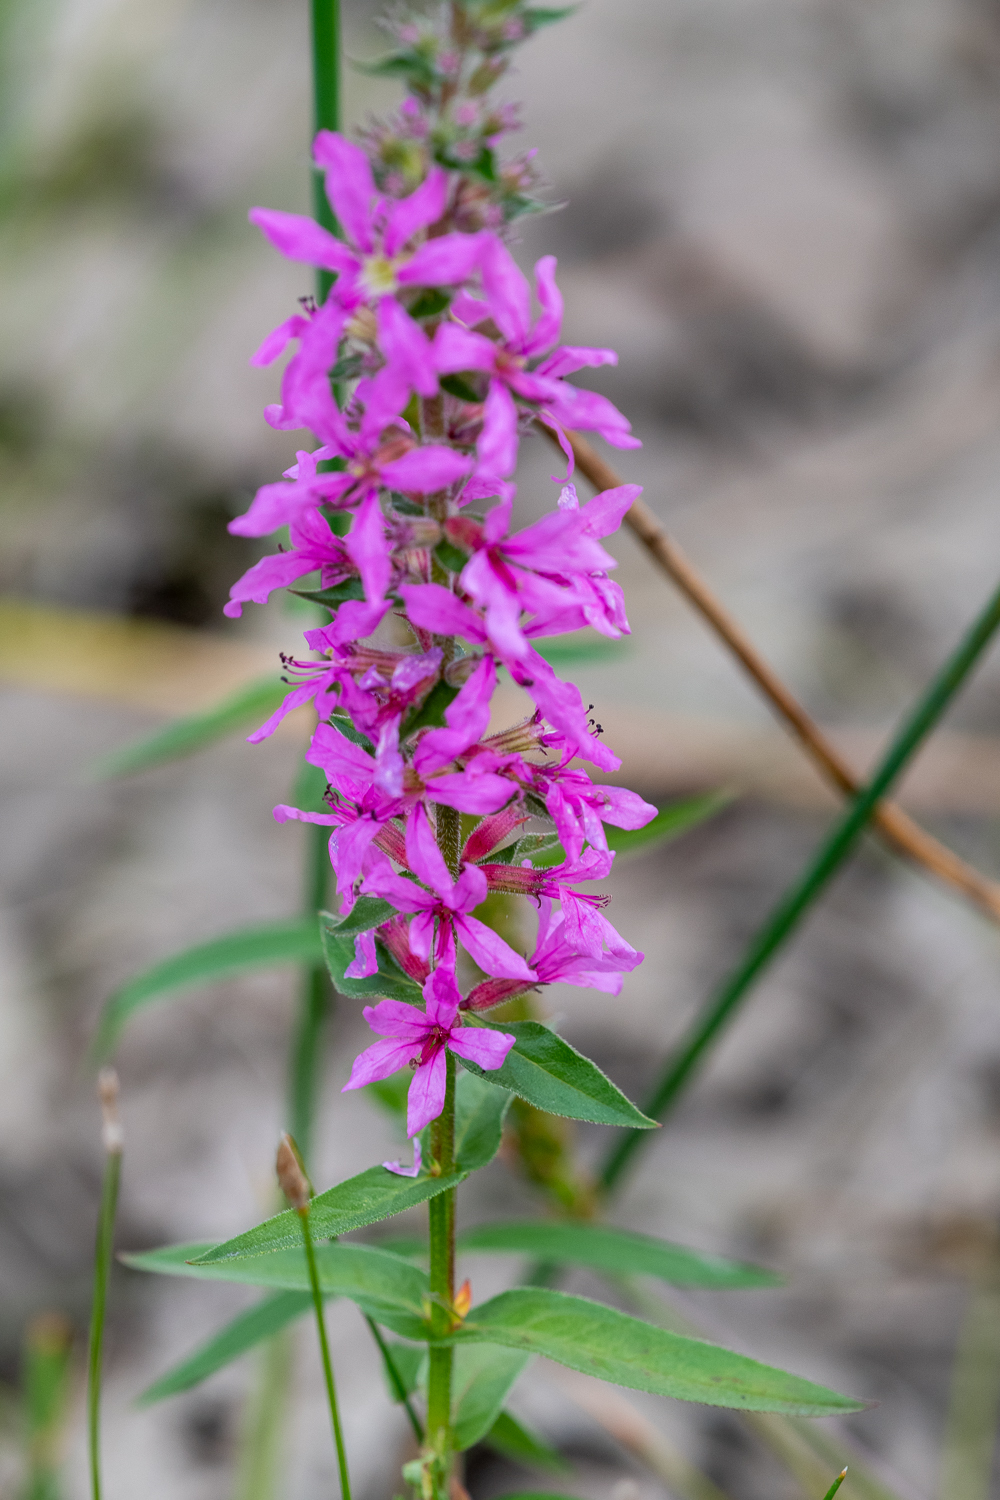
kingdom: Plantae
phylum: Tracheophyta
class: Magnoliopsida
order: Myrtales
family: Lythraceae
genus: Lythrum
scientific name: Lythrum salicaria
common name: Purple loosestrife
